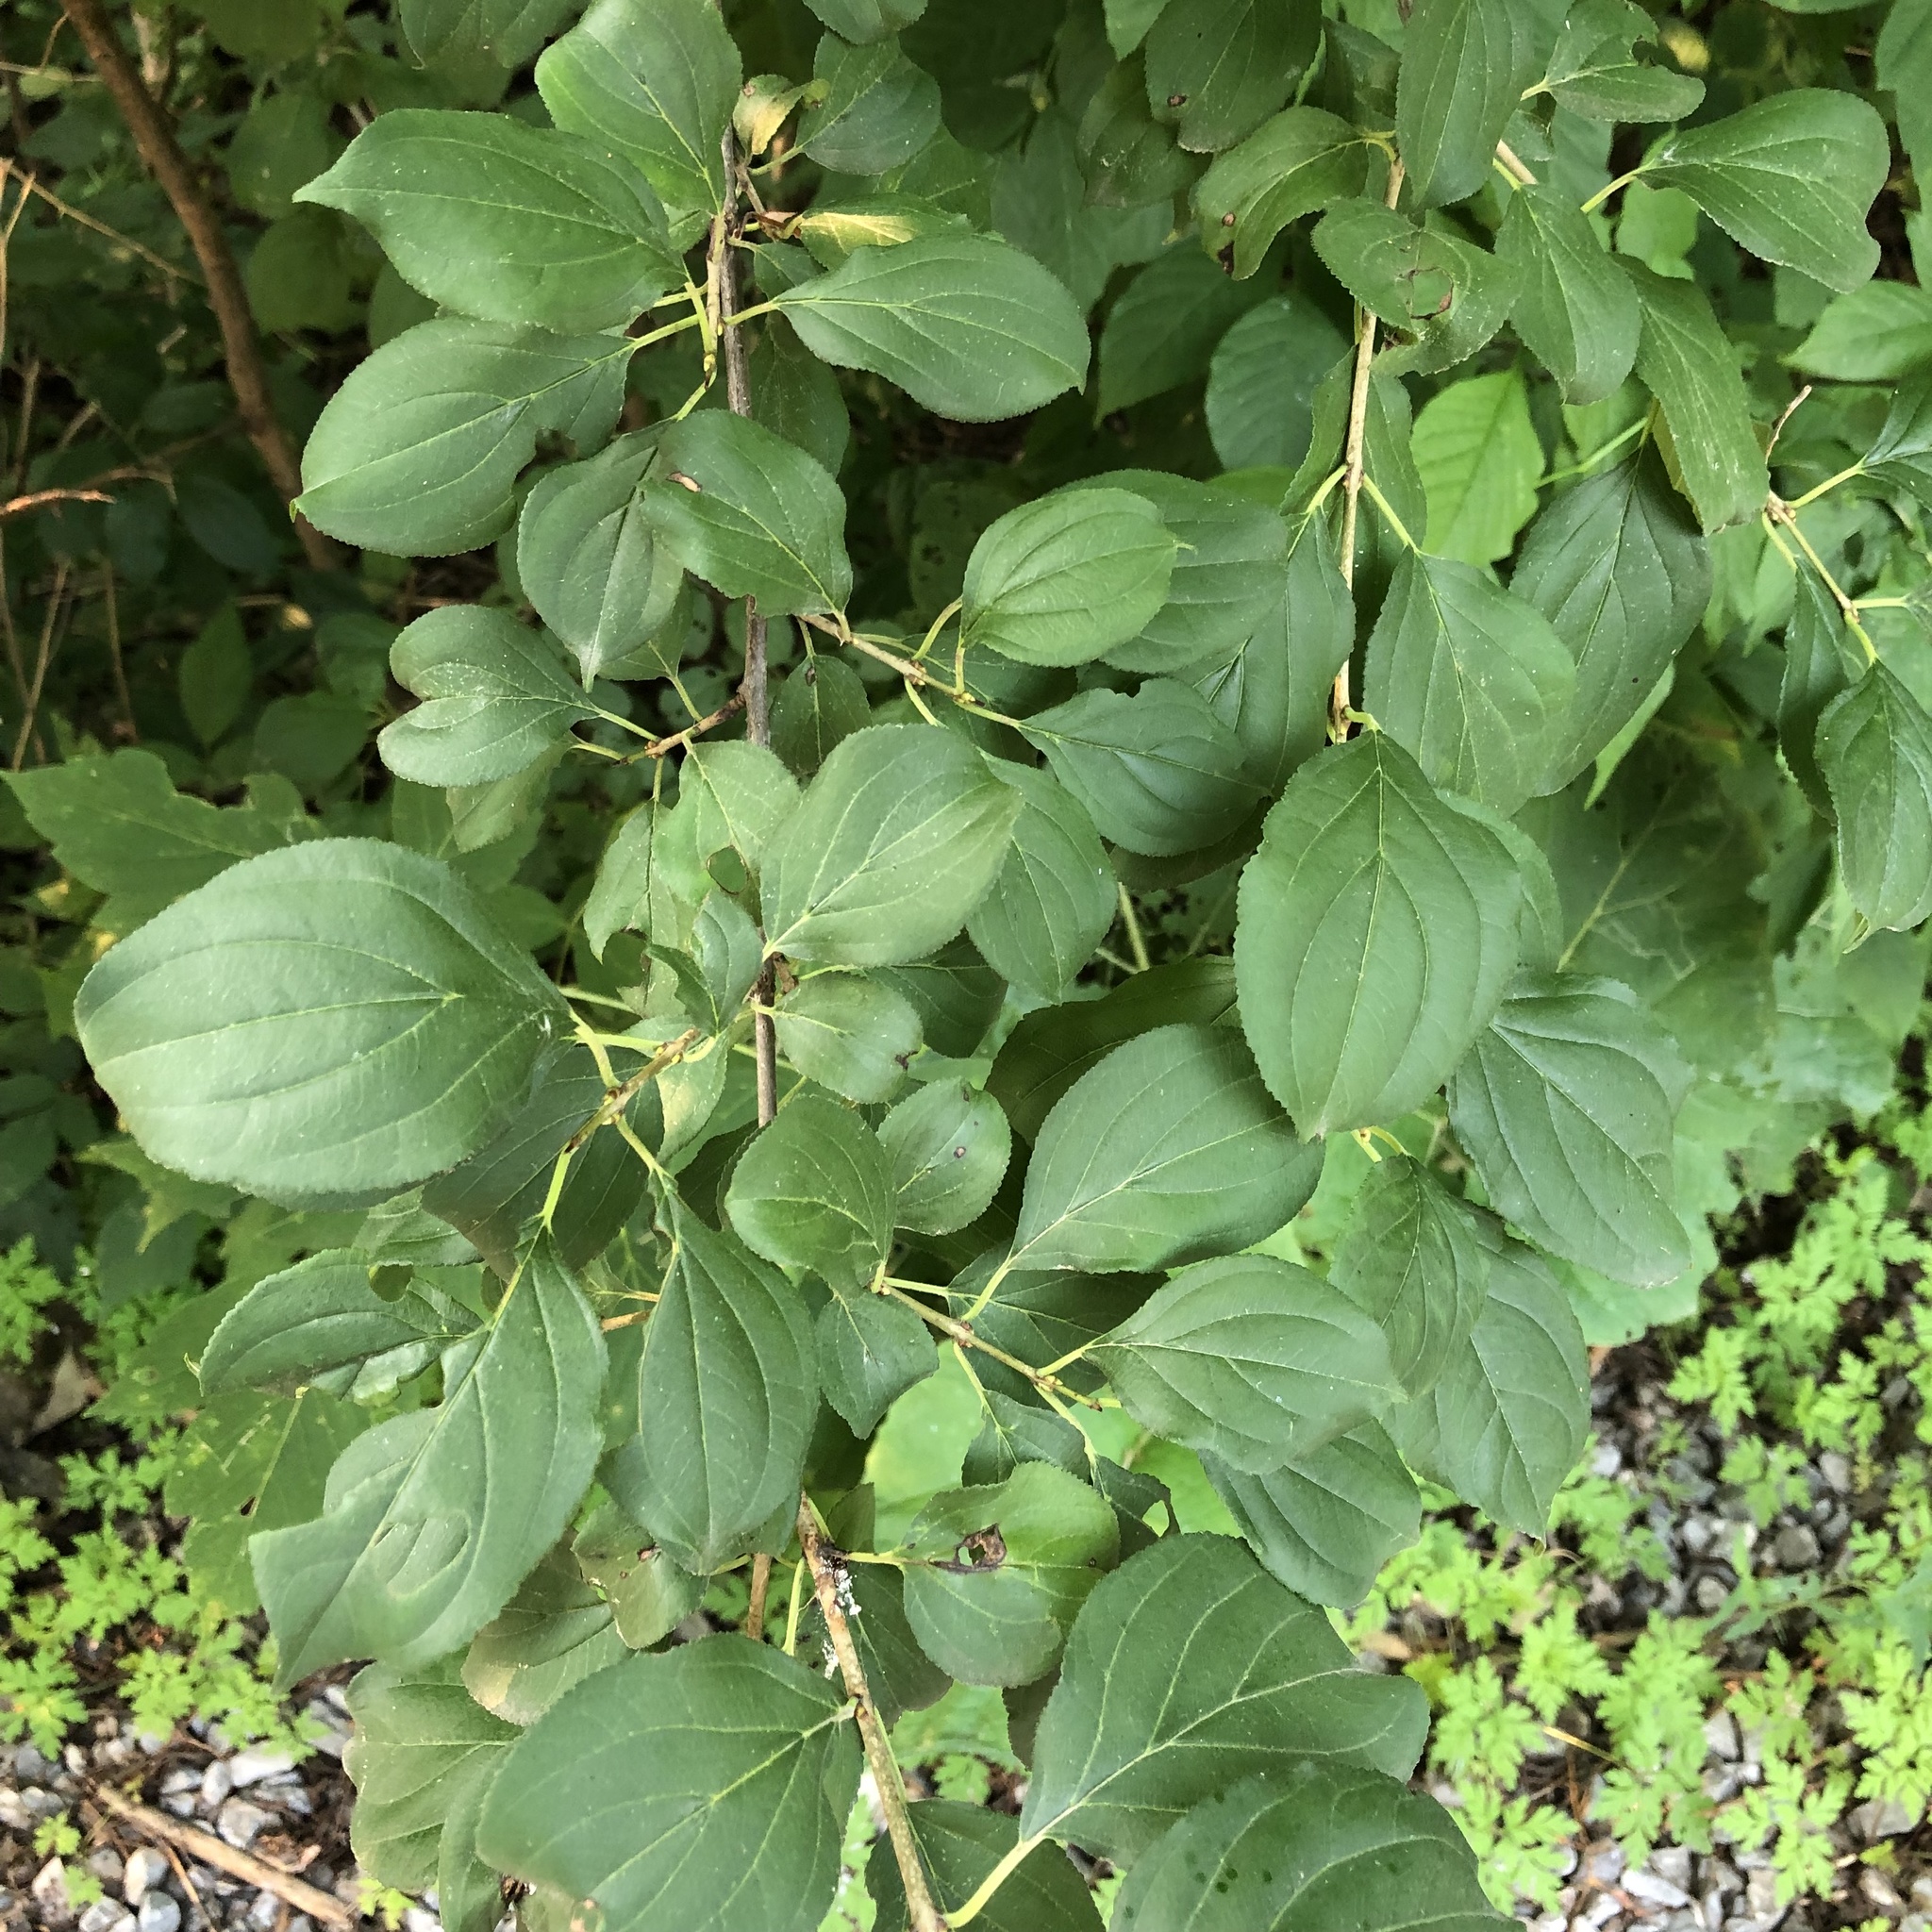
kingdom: Plantae
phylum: Tracheophyta
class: Magnoliopsida
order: Rosales
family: Rhamnaceae
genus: Rhamnus
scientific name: Rhamnus cathartica
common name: Common buckthorn
